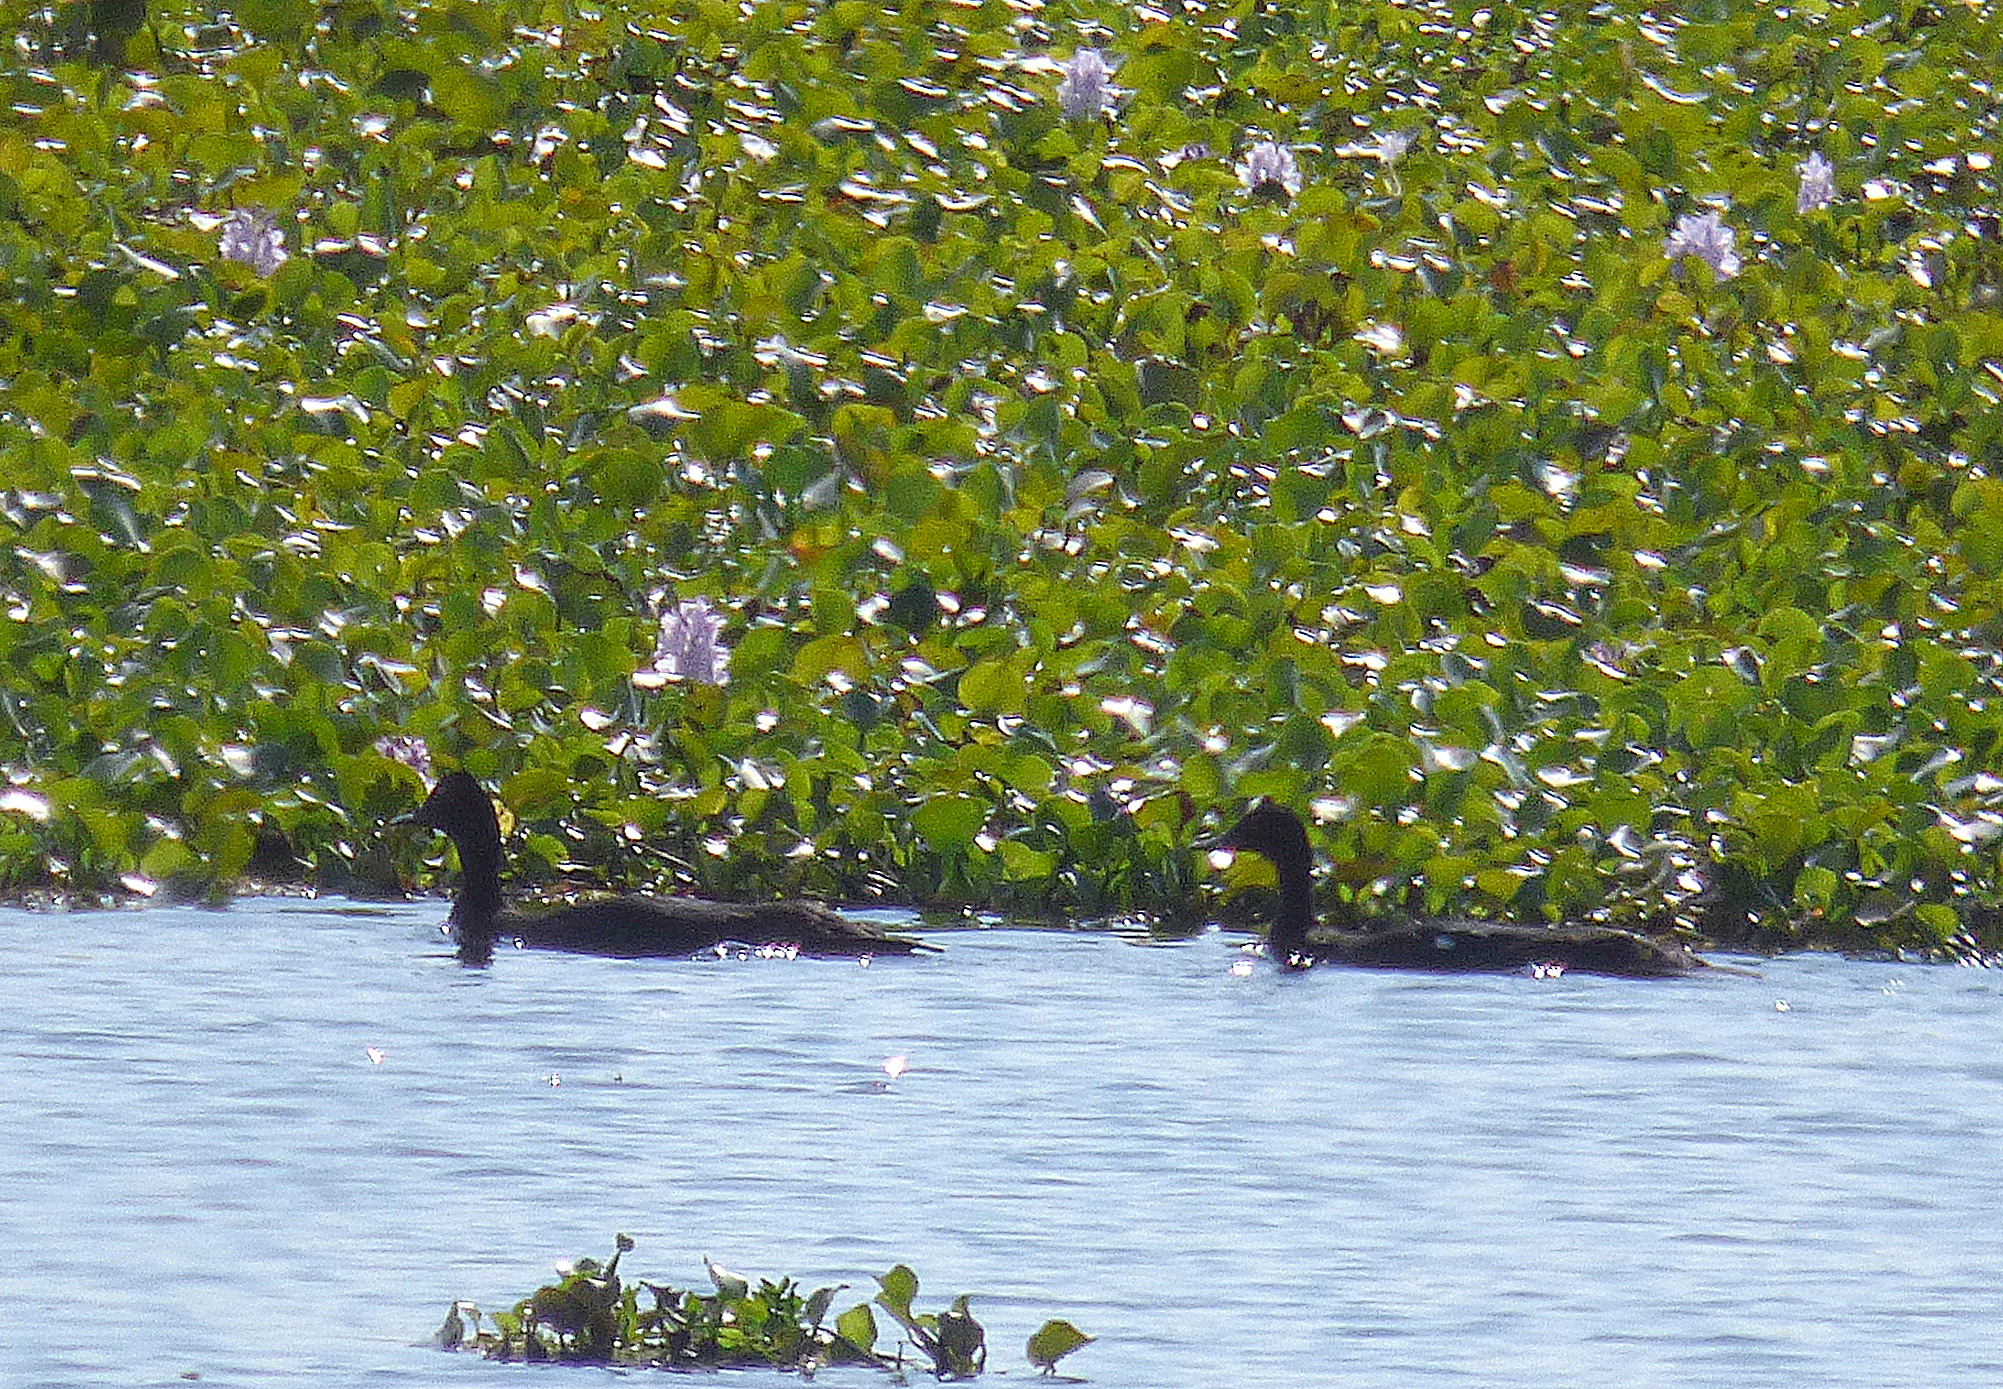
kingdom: Animalia
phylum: Chordata
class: Aves
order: Anseriformes
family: Anatidae
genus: Cairina
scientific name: Cairina moschata
